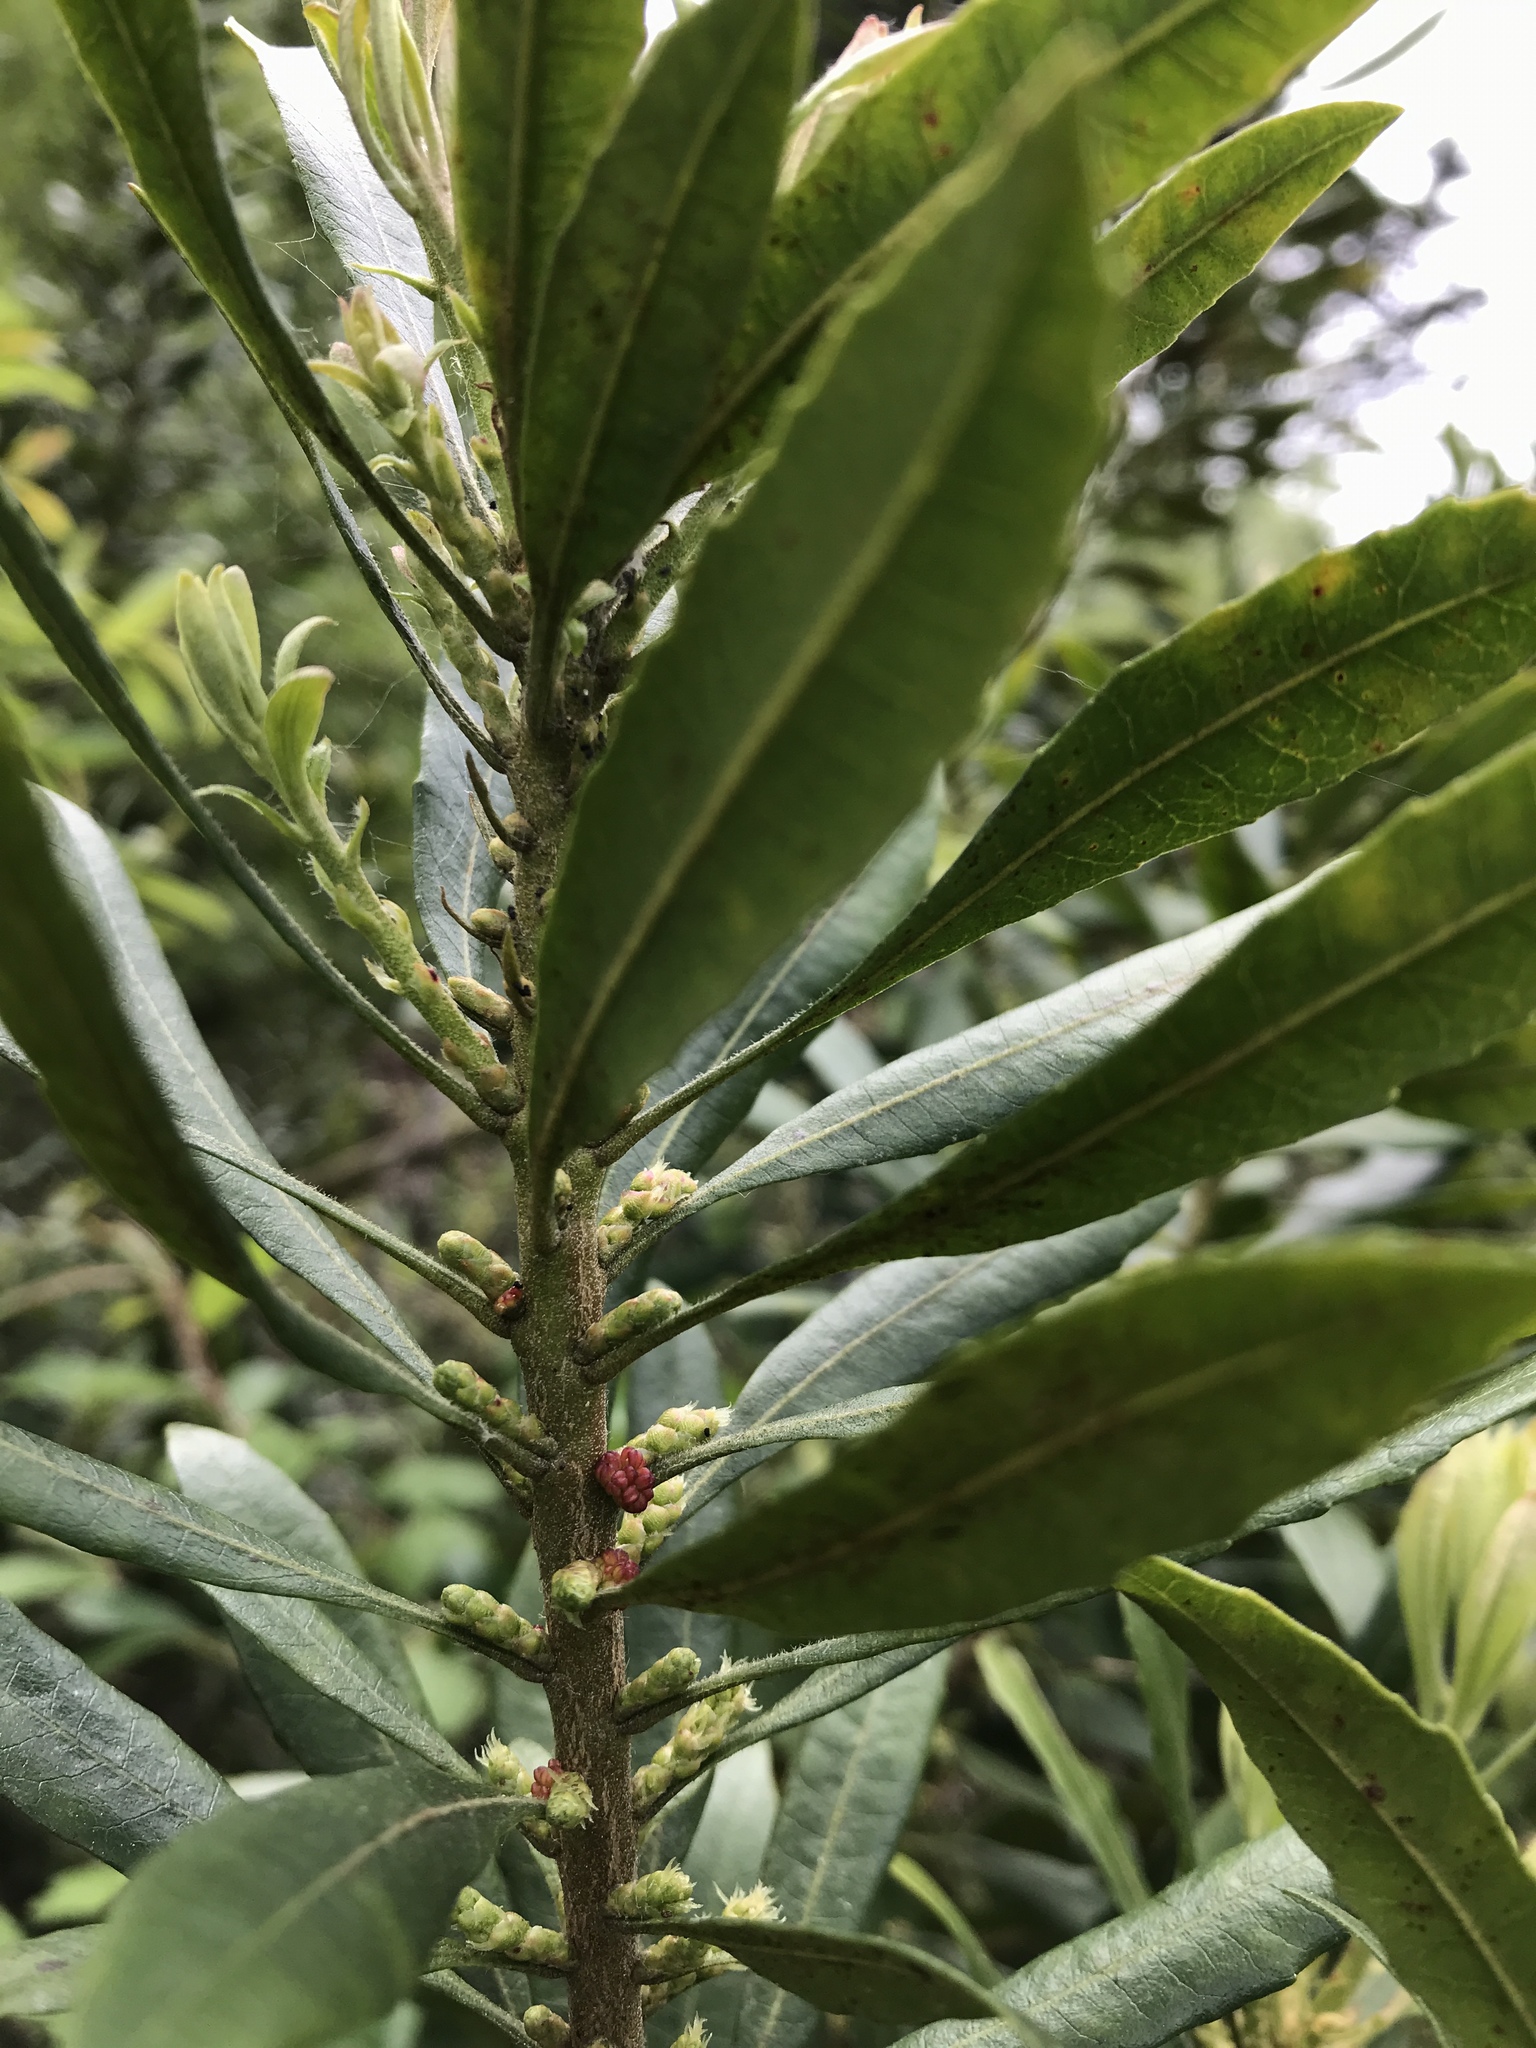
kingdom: Plantae
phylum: Tracheophyta
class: Magnoliopsida
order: Fagales
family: Myricaceae
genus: Morella
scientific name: Morella californica
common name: California wax-myrtle
